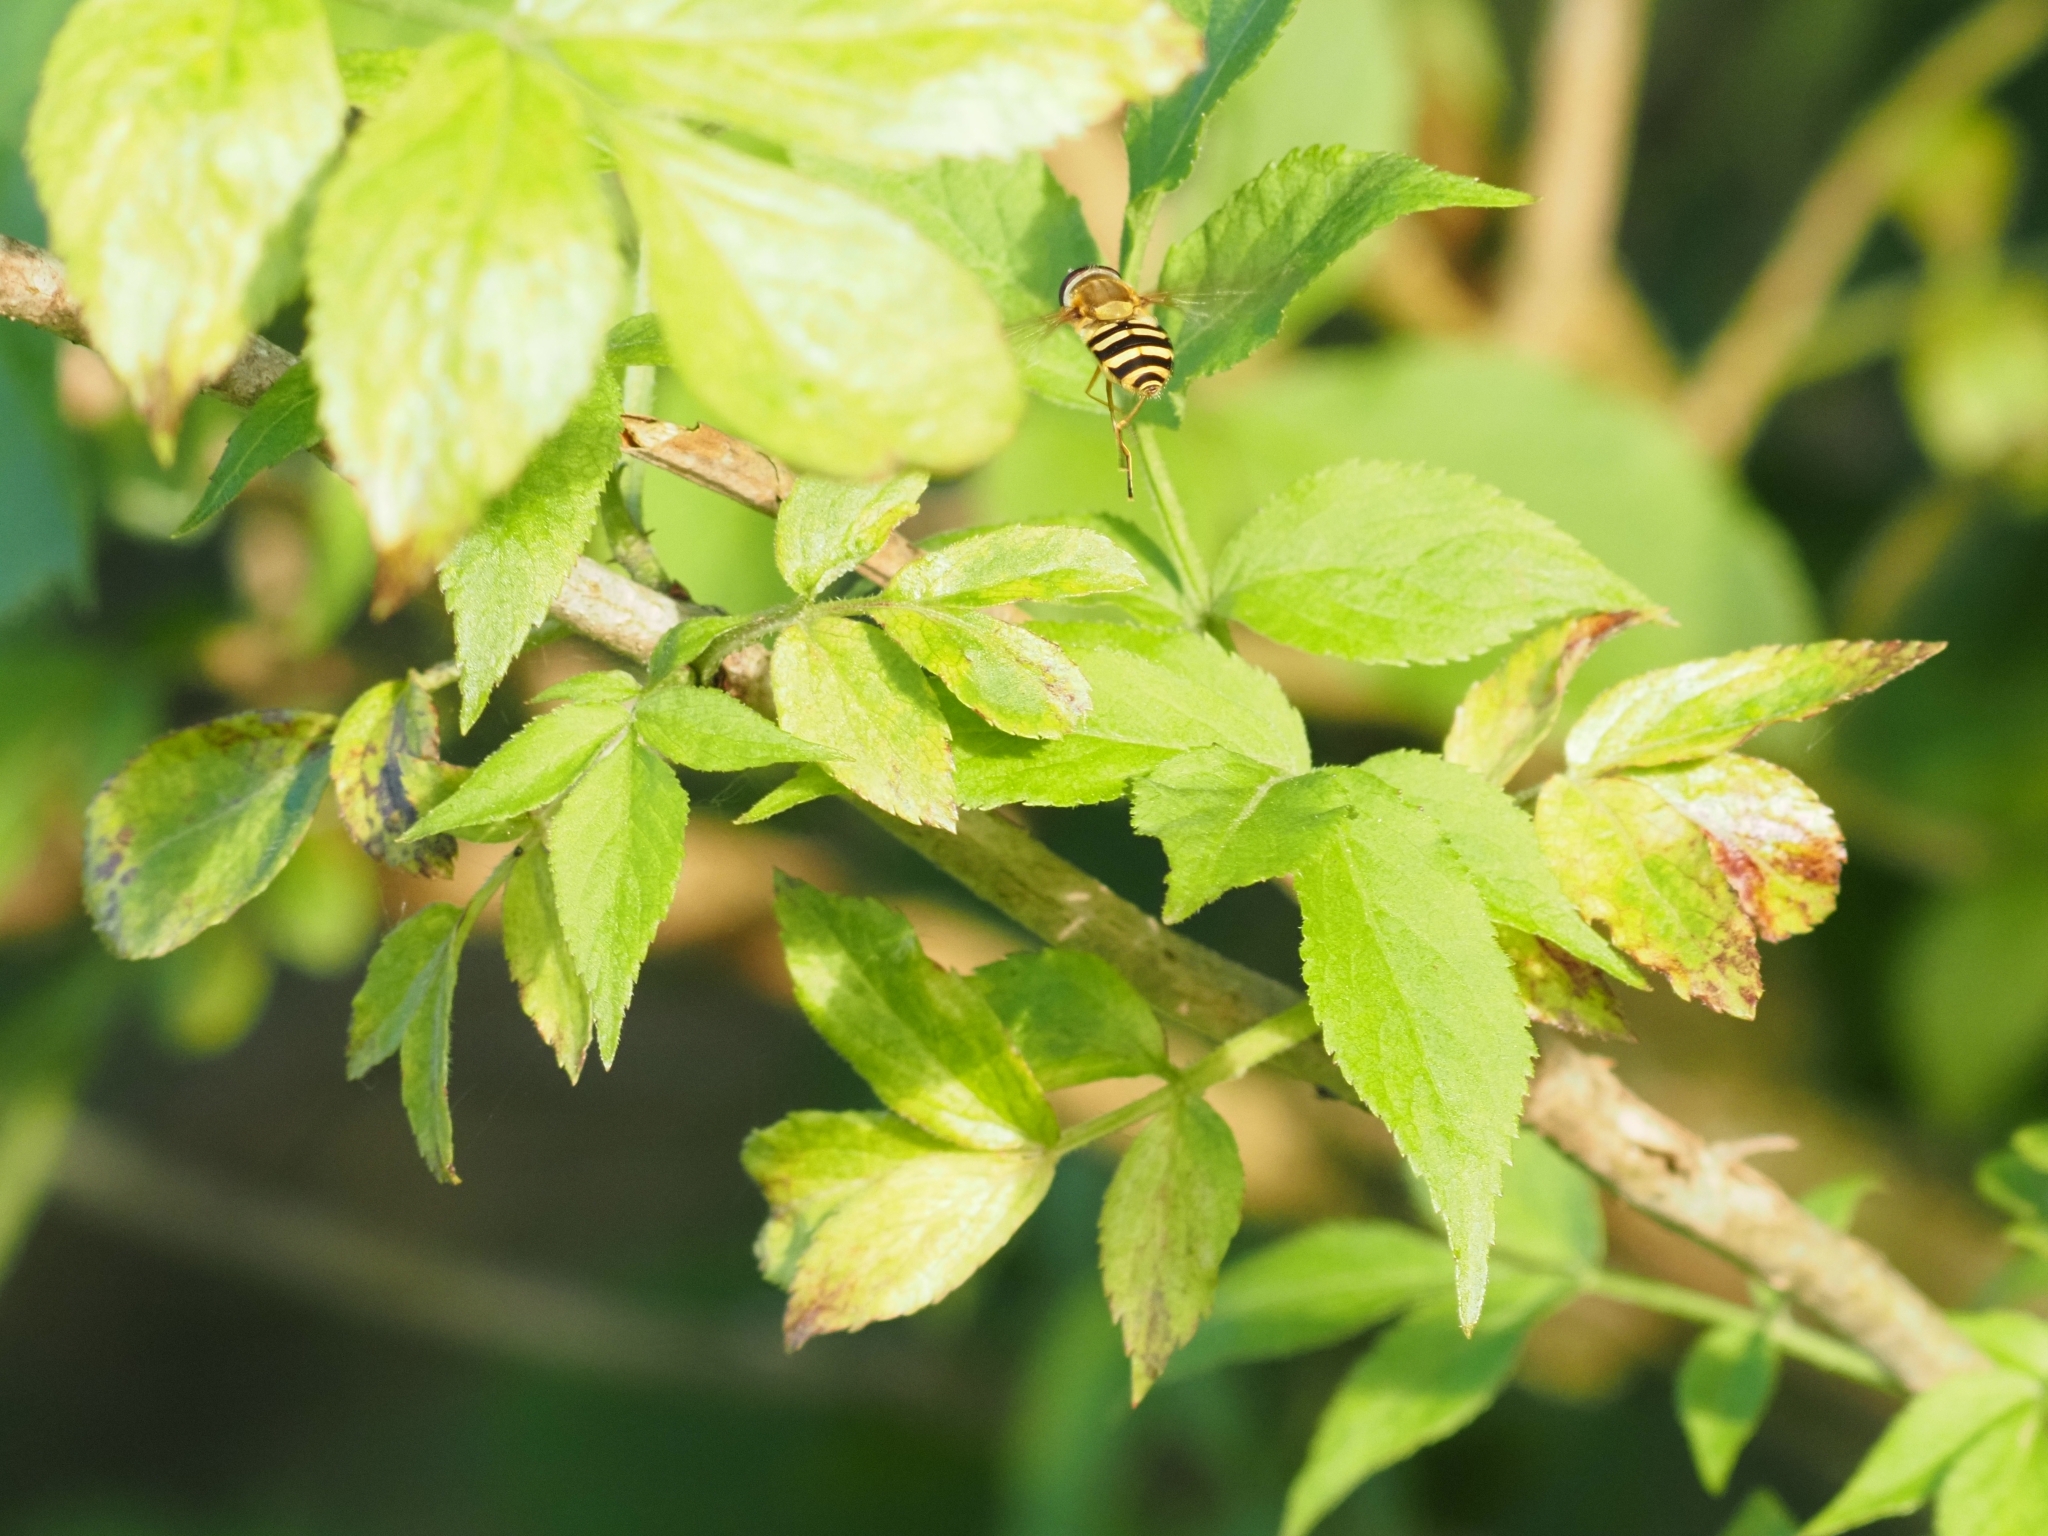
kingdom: Animalia
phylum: Arthropoda
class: Insecta
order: Diptera
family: Syrphidae
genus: Syrphus
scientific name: Syrphus ribesii
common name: Common flower fly
